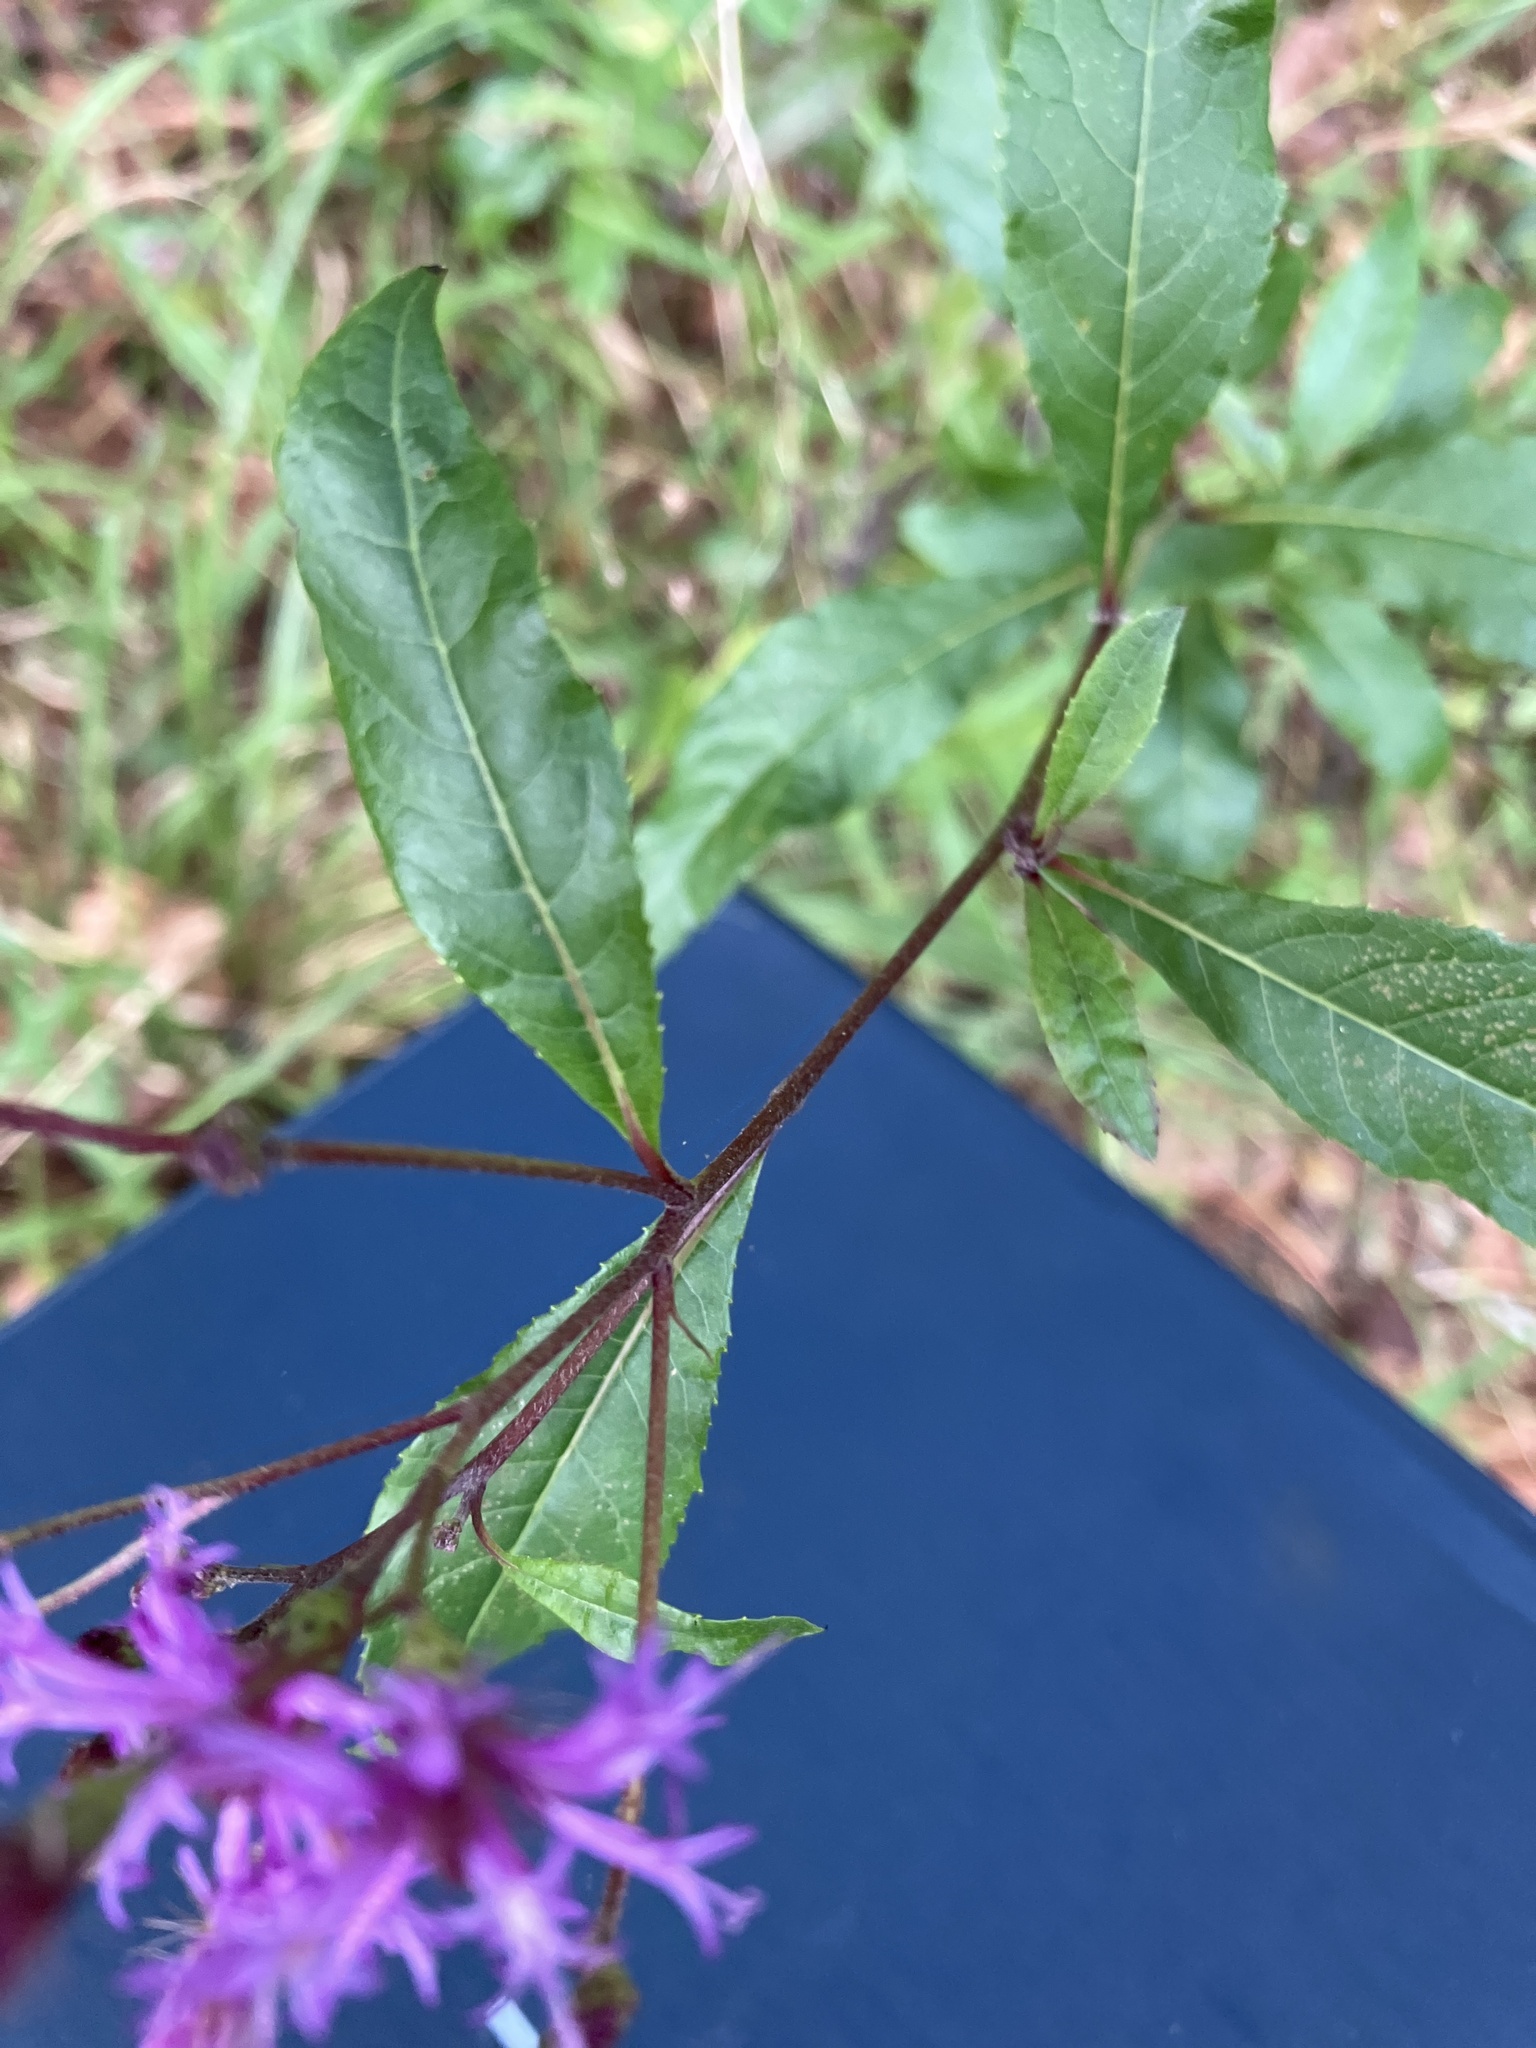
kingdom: Plantae
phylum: Tracheophyta
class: Magnoliopsida
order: Asterales
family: Asteraceae
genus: Vernonia
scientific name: Vernonia gigantea
